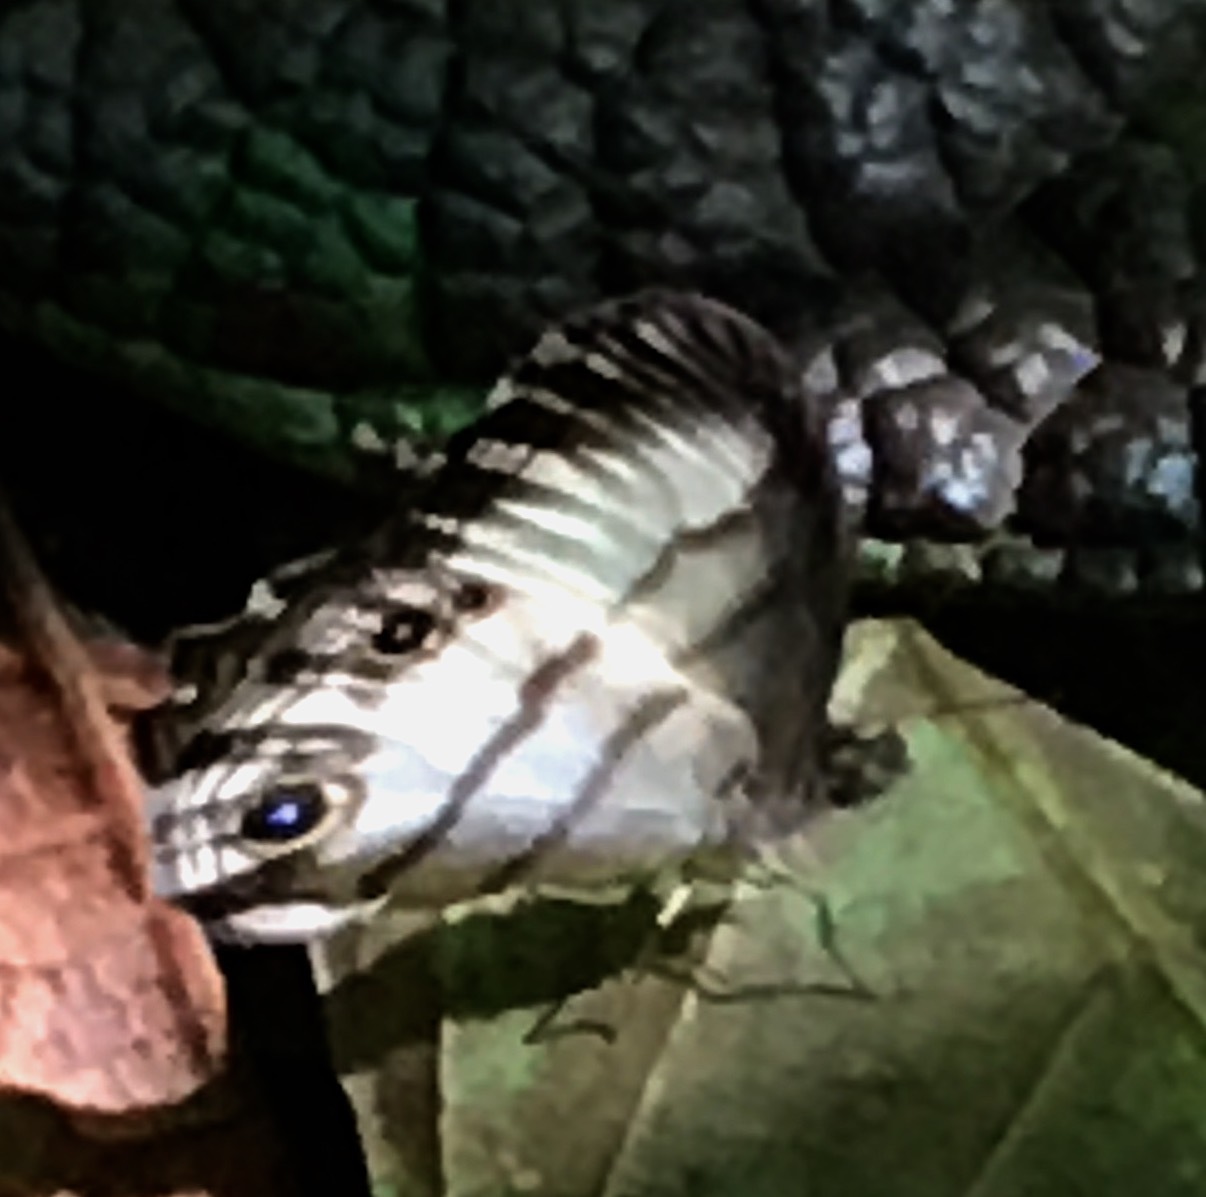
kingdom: Animalia
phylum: Arthropoda
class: Insecta
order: Lepidoptera
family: Nymphalidae
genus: Splendeuptychia
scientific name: Splendeuptychia
